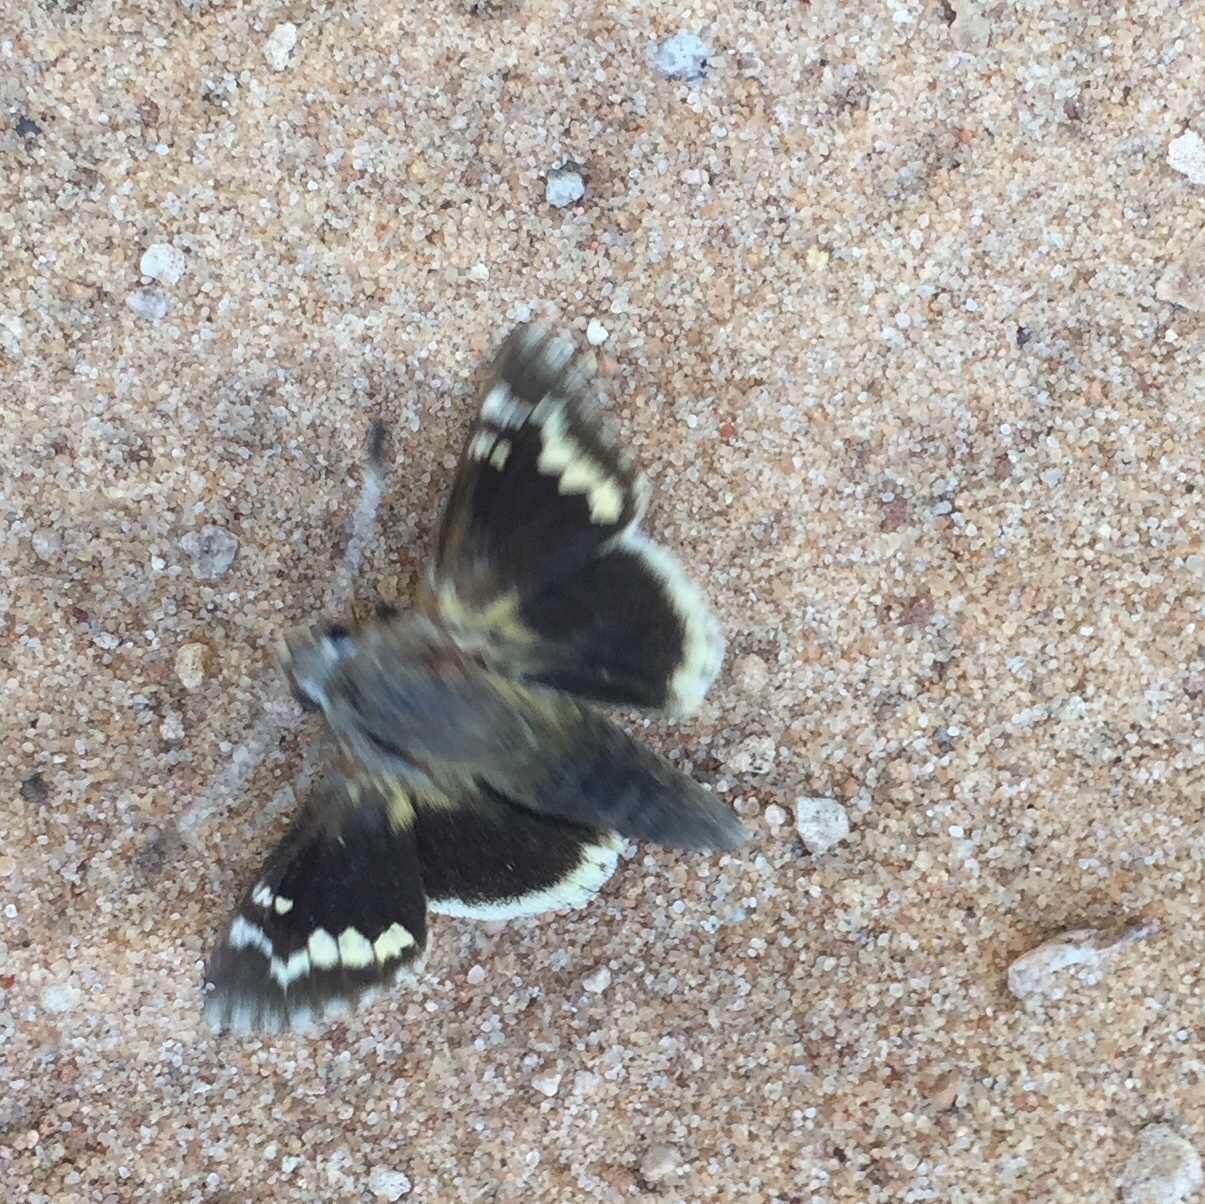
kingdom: Animalia
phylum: Arthropoda
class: Insecta
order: Lepidoptera
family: Hesperiidae
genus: Megathymus
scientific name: Megathymus yuccae
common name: Yucca giant-skipper
